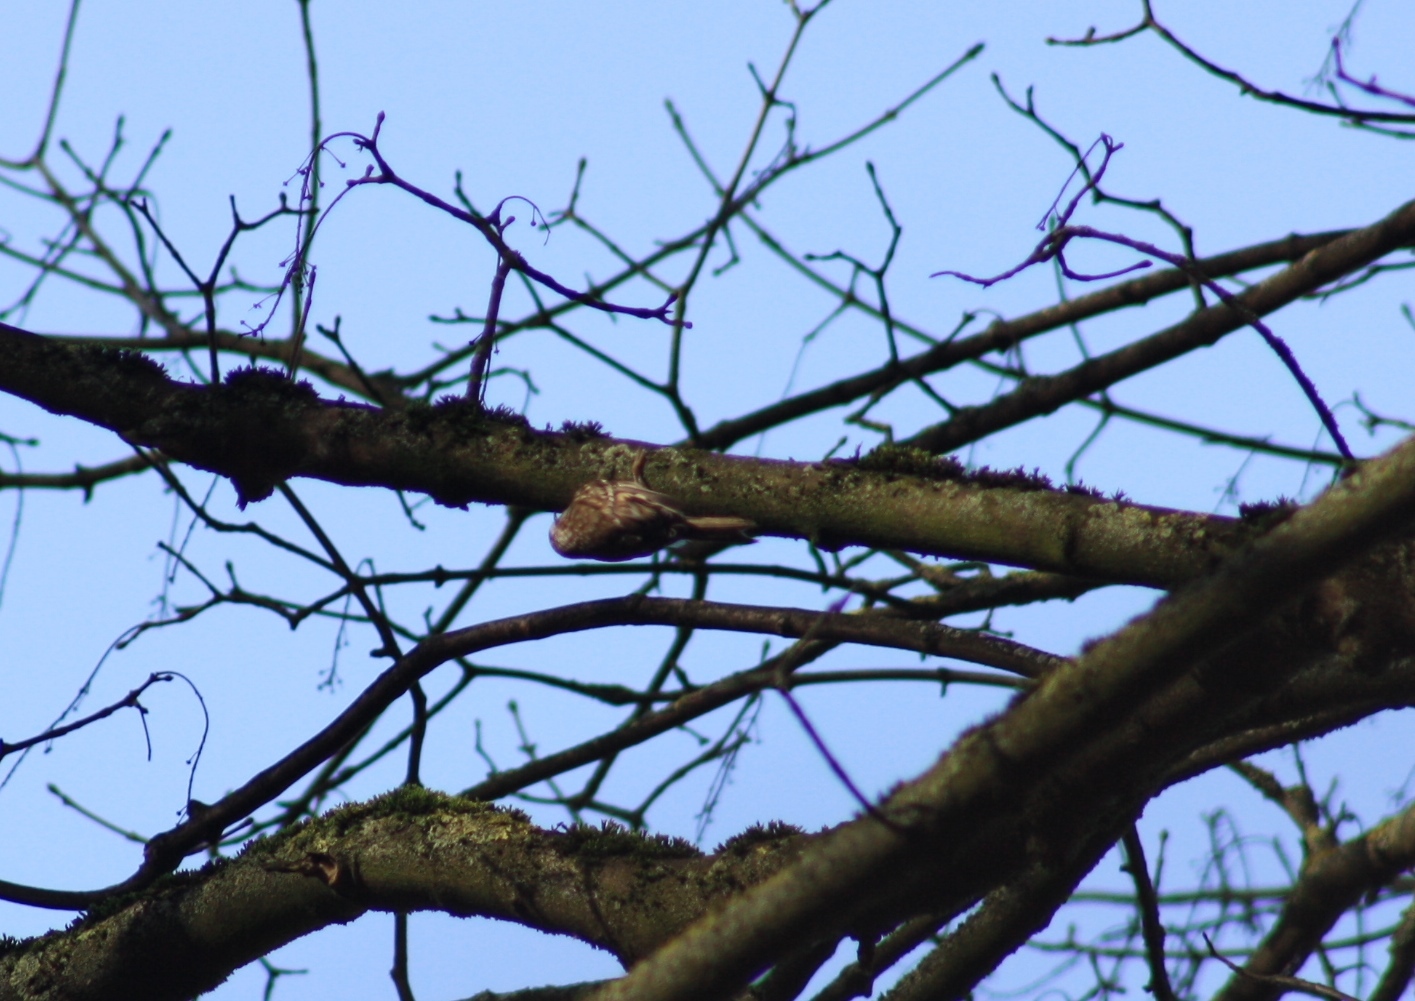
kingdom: Animalia
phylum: Chordata
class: Aves
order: Passeriformes
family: Certhiidae
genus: Certhia
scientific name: Certhia familiaris
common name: Eurasian treecreeper
